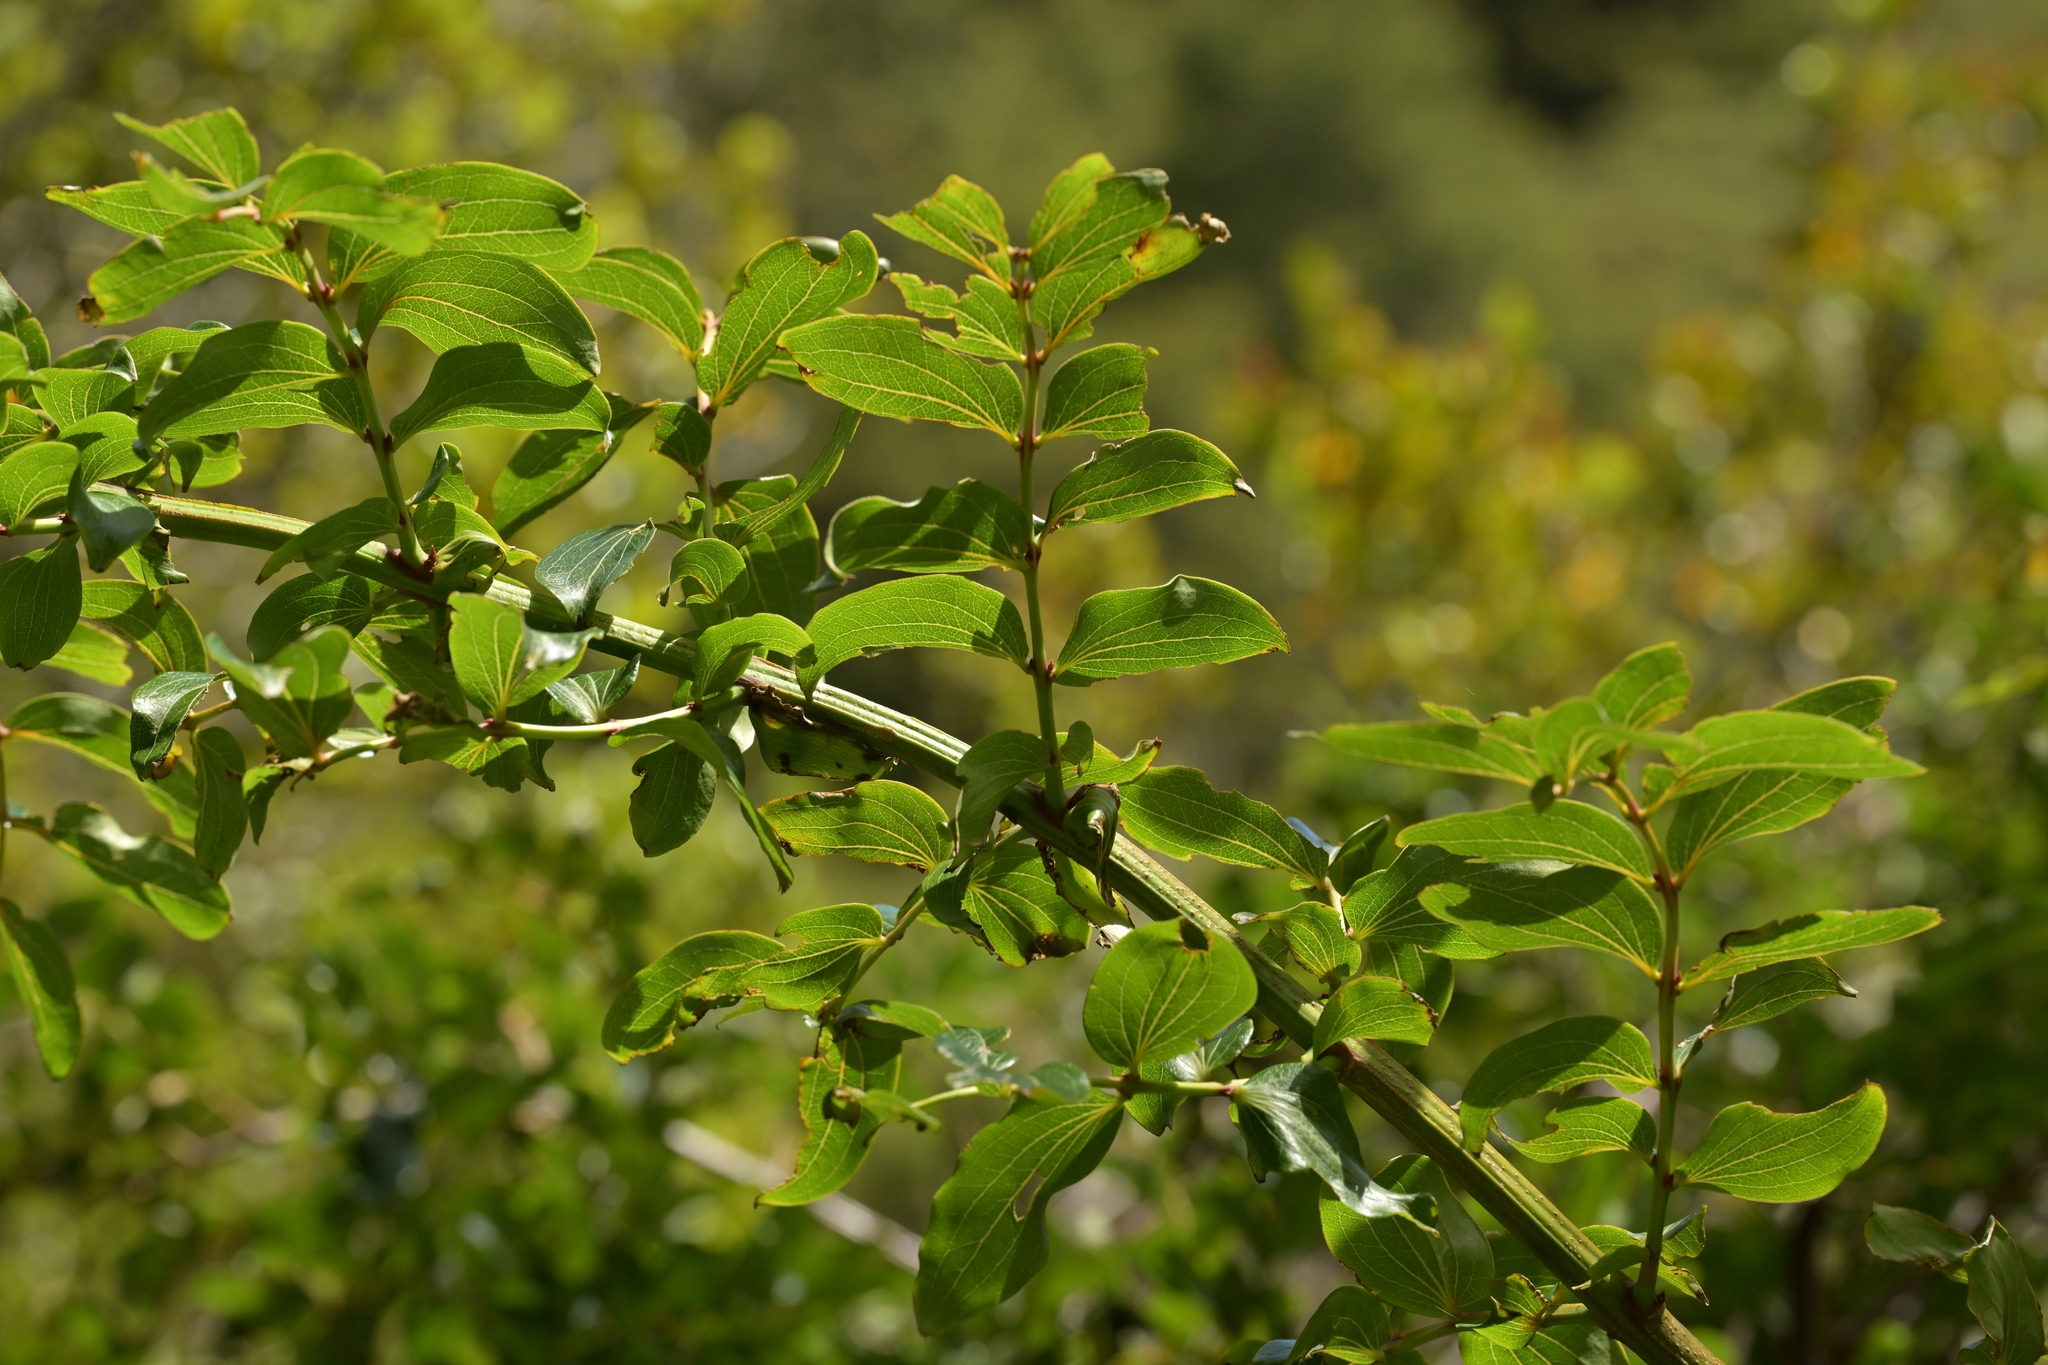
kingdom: Plantae
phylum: Tracheophyta
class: Magnoliopsida
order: Cucurbitales
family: Coriariaceae
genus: Coriaria
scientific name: Coriaria arborea
